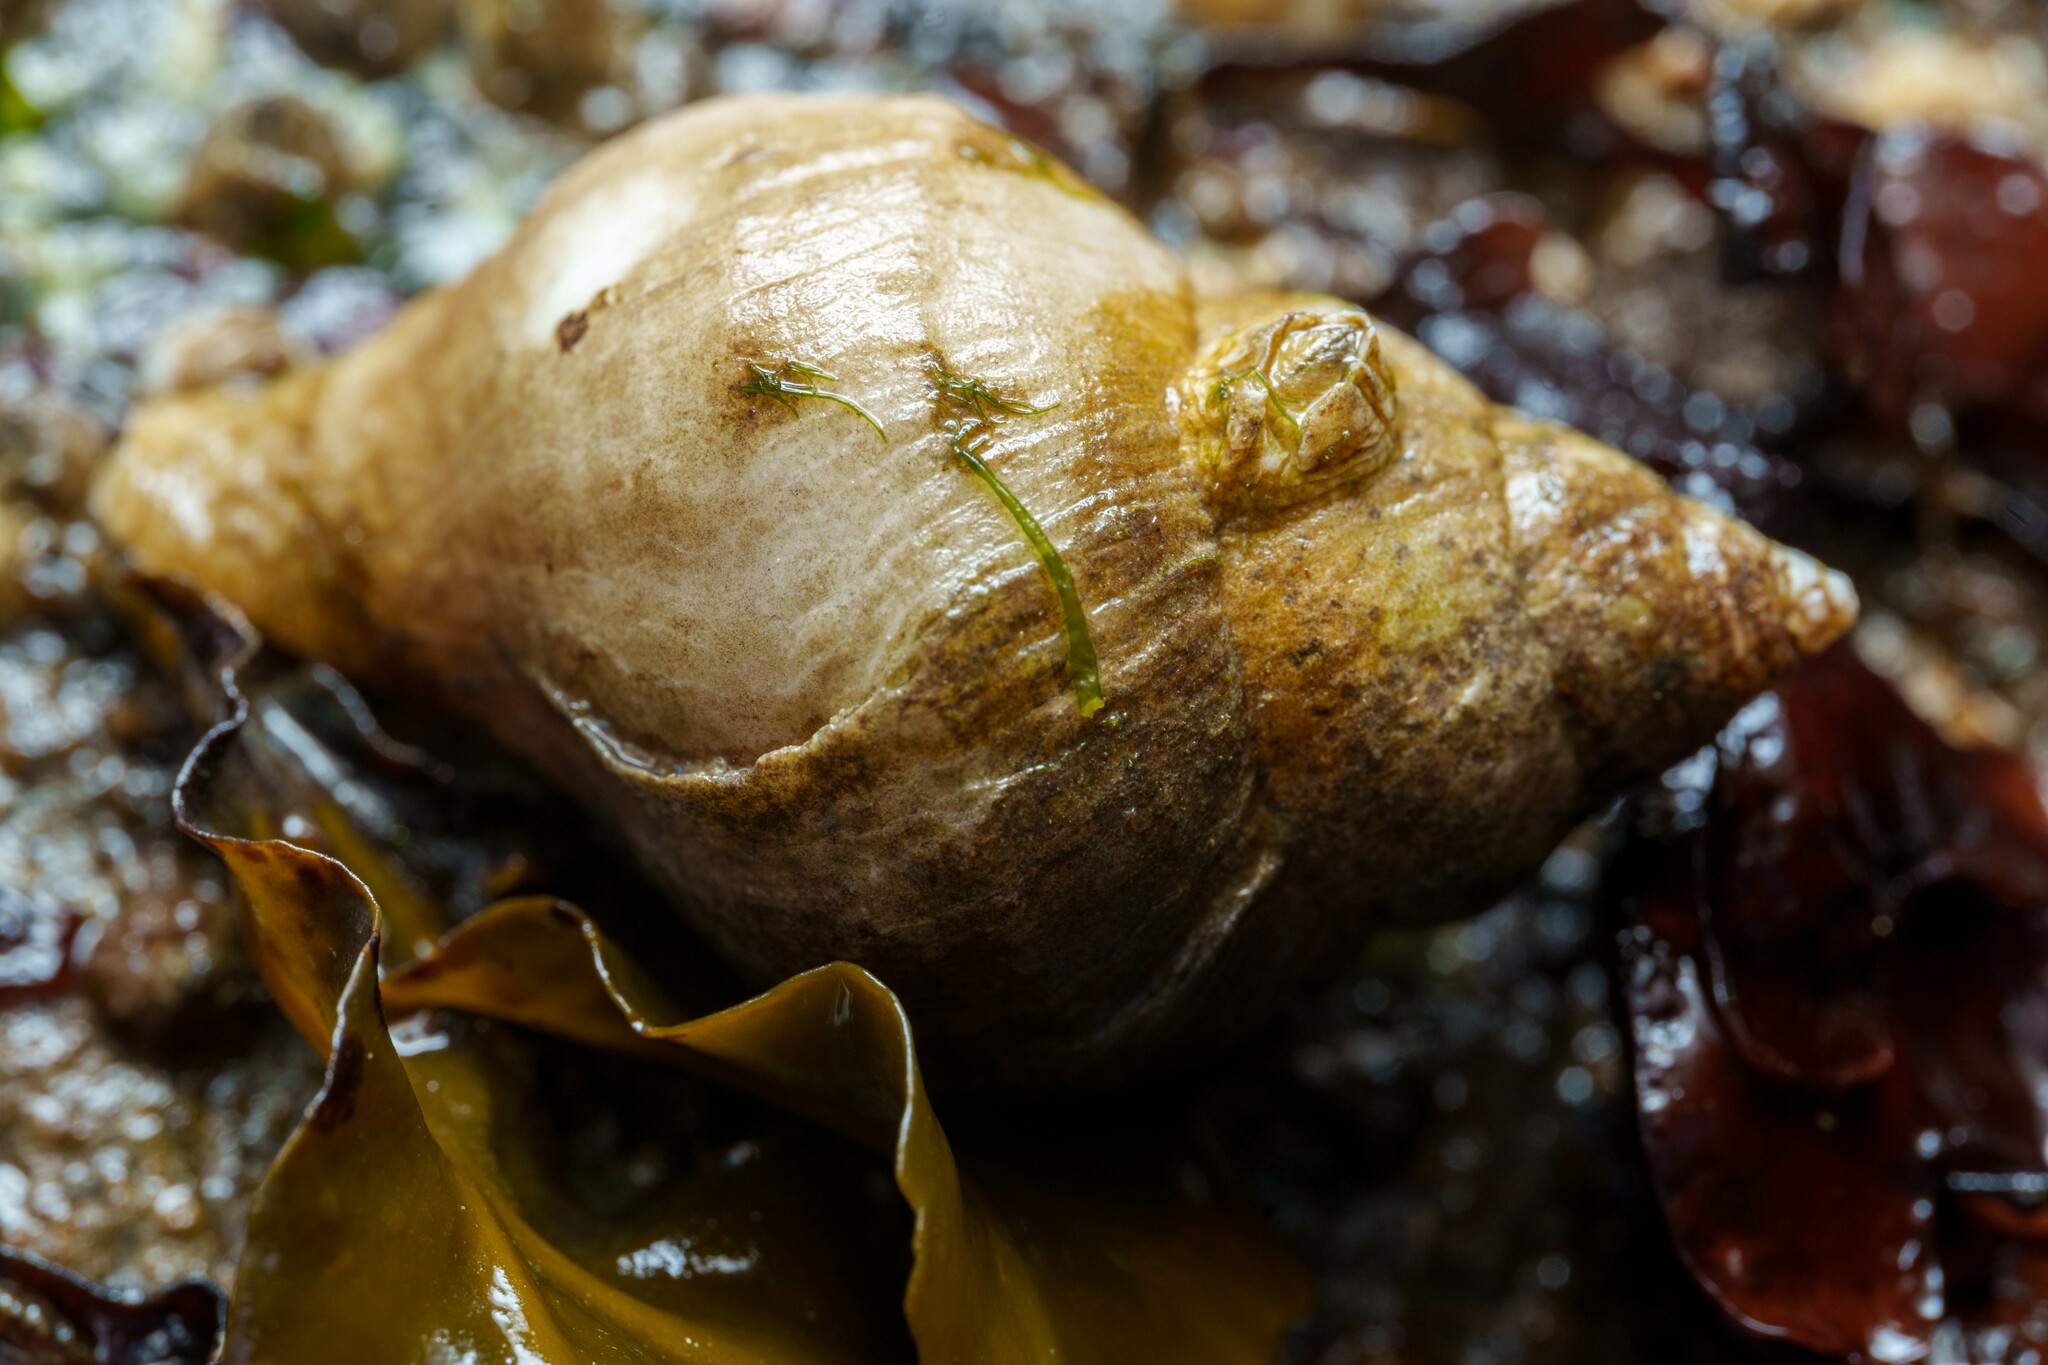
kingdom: Animalia
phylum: Mollusca
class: Gastropoda
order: Neogastropoda
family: Muricidae
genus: Nucella
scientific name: Nucella lamellosa
